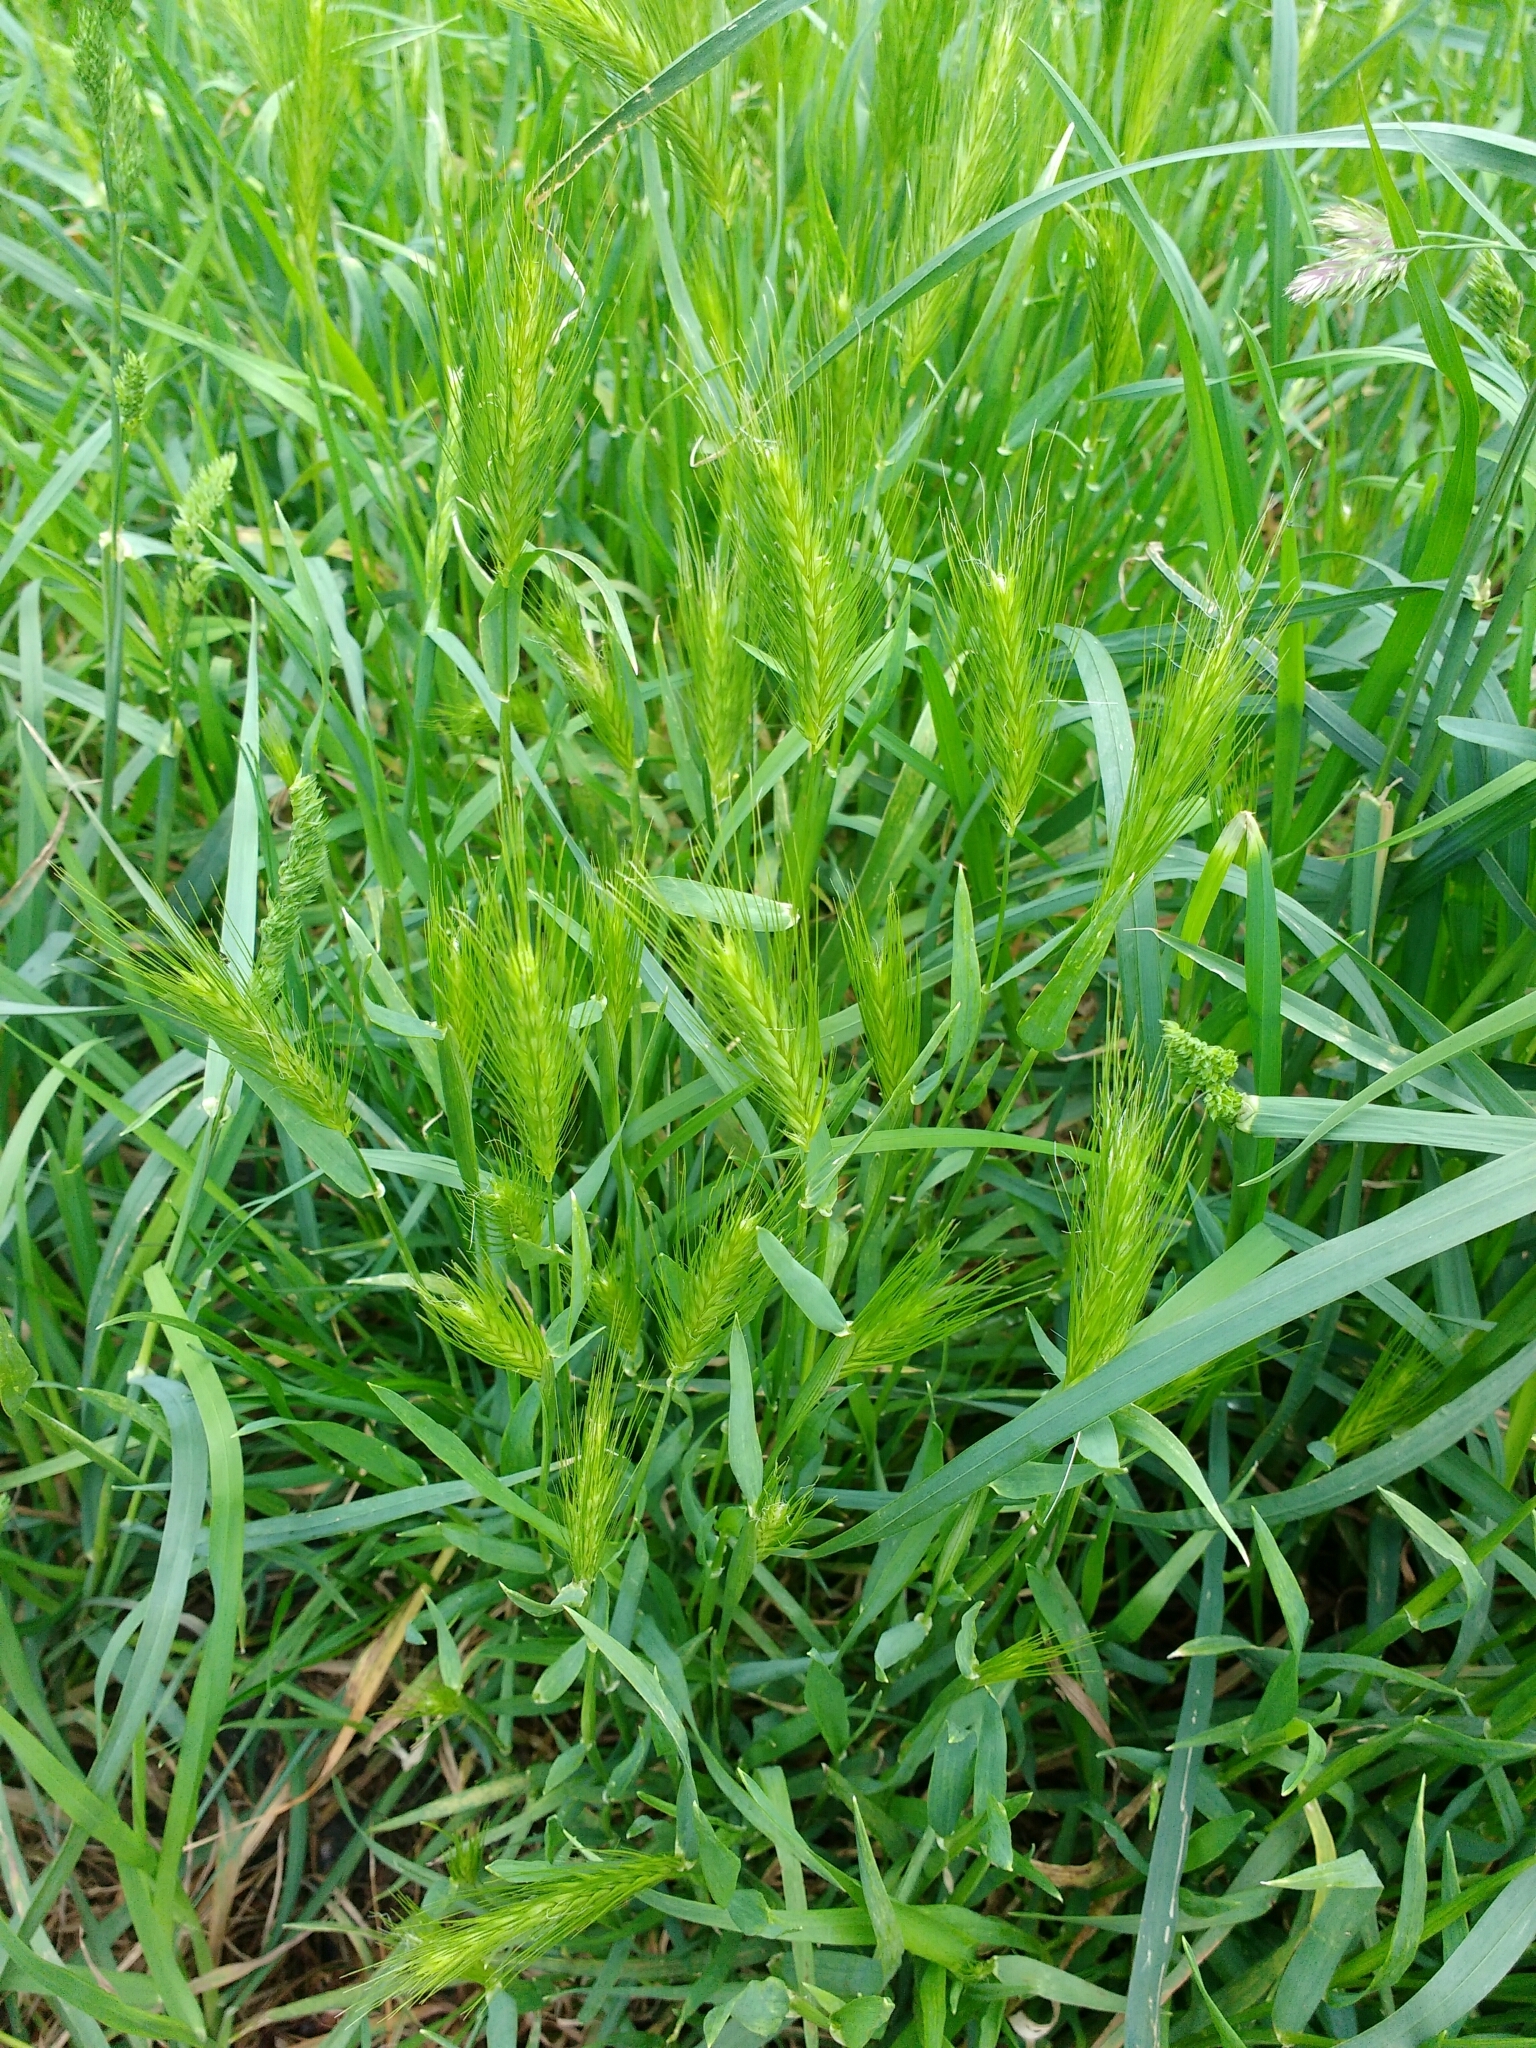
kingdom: Plantae
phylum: Tracheophyta
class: Liliopsida
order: Poales
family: Poaceae
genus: Hordeum
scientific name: Hordeum murinum
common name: Wall barley
